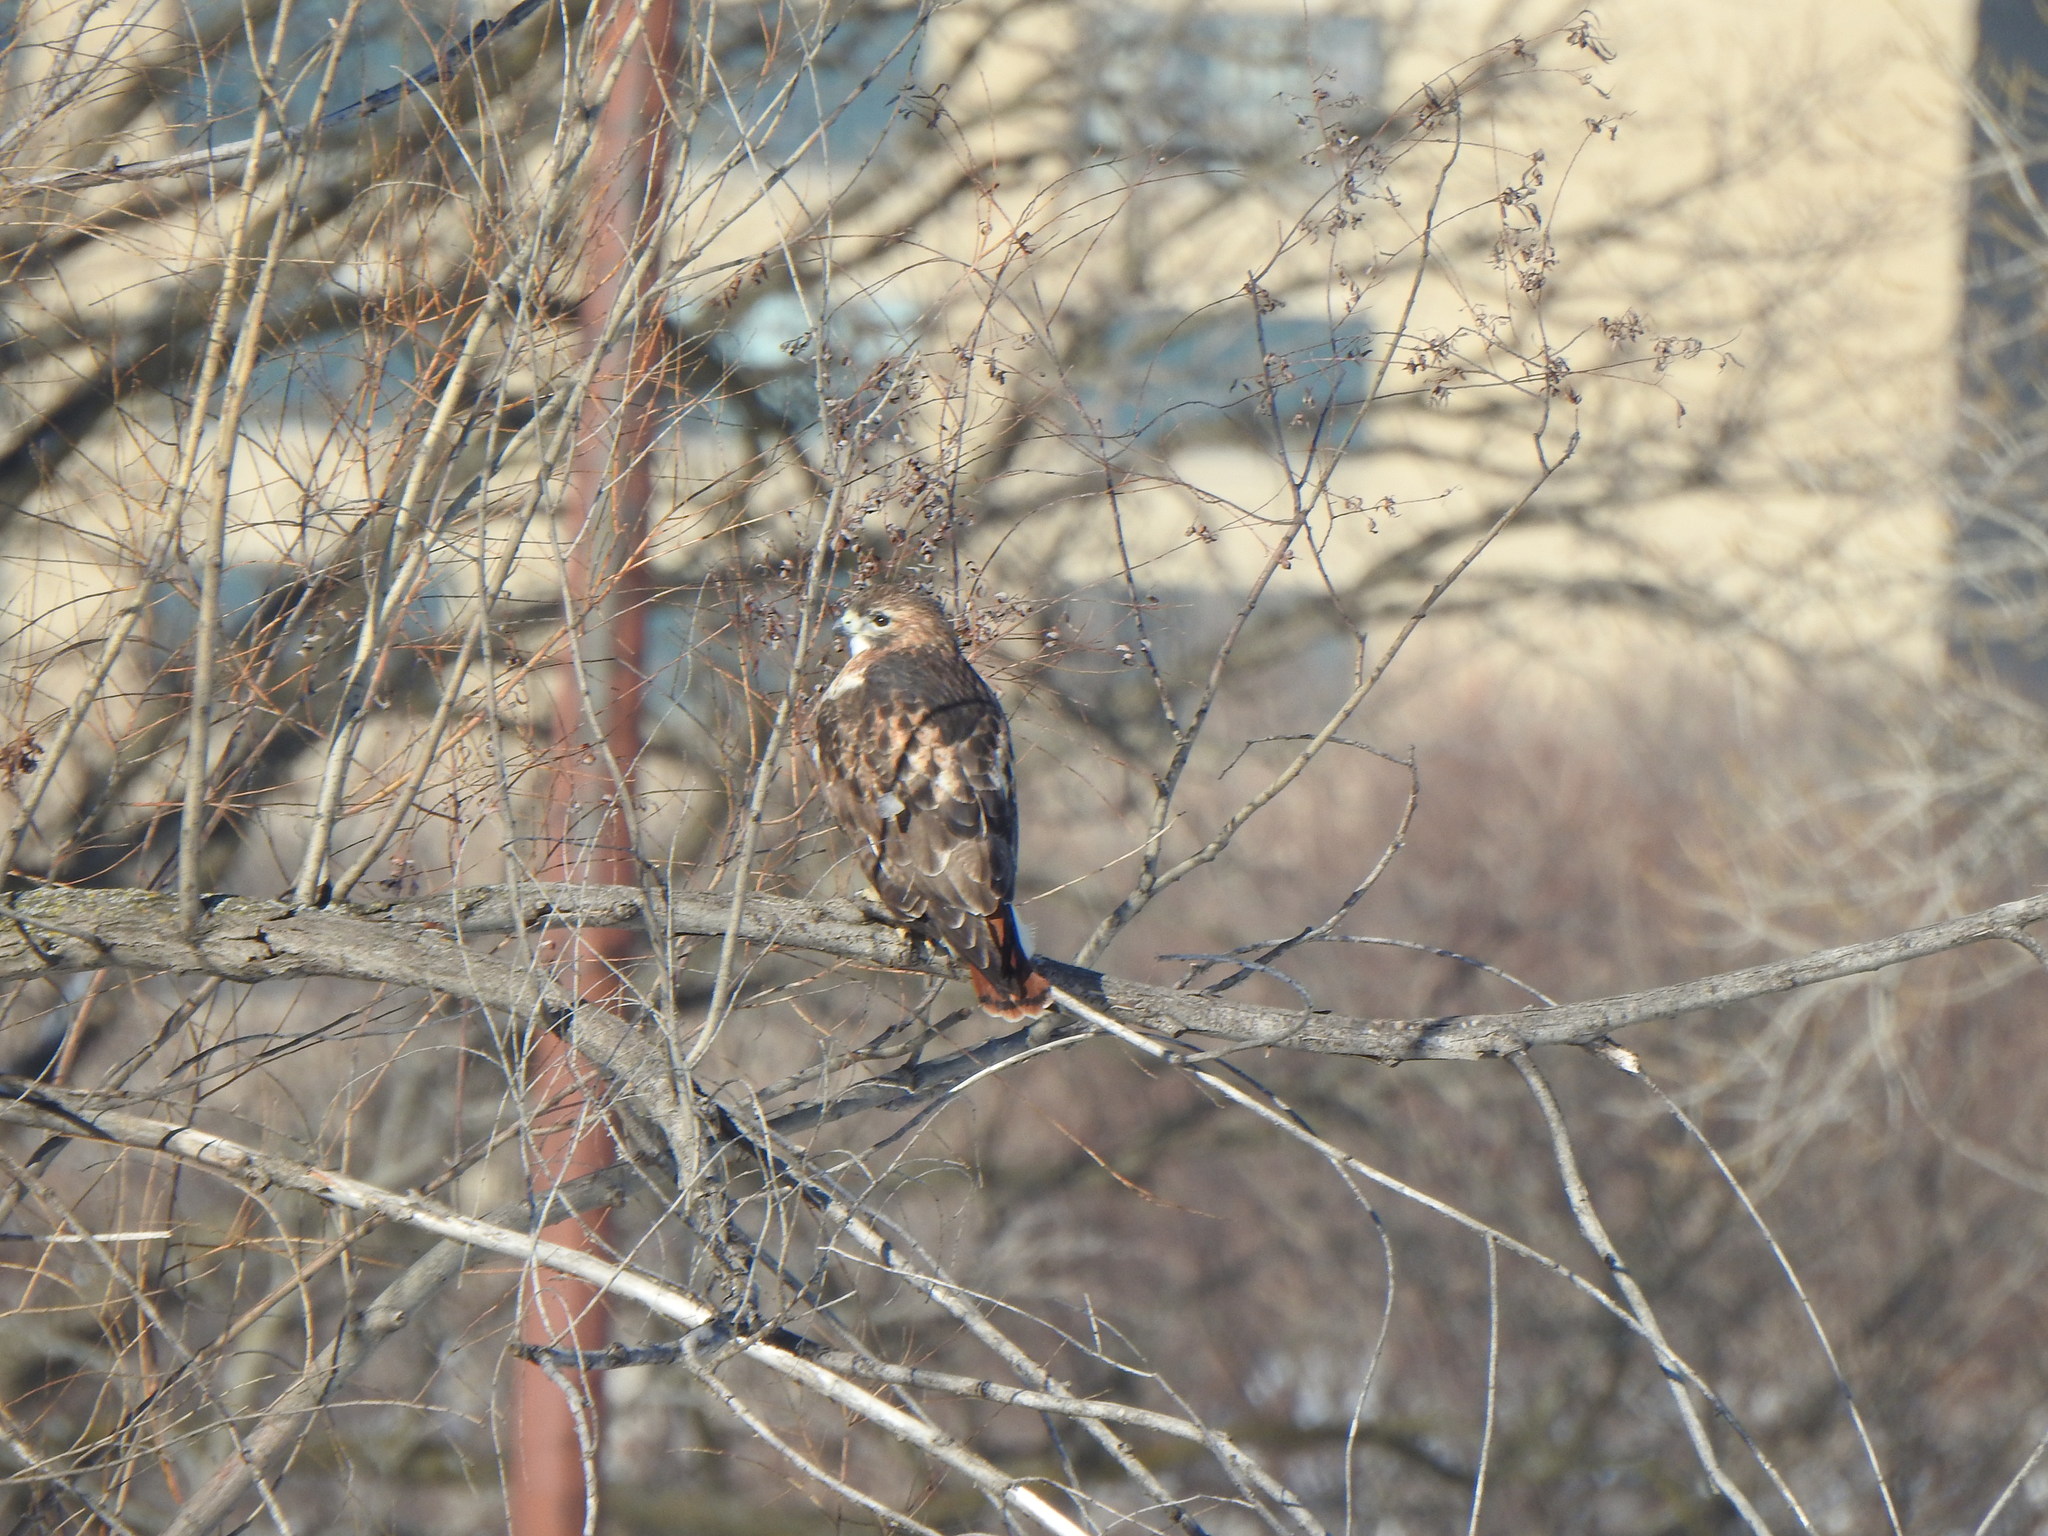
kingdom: Animalia
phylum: Chordata
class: Aves
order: Accipitriformes
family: Accipitridae
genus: Buteo
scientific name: Buteo jamaicensis
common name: Red-tailed hawk
